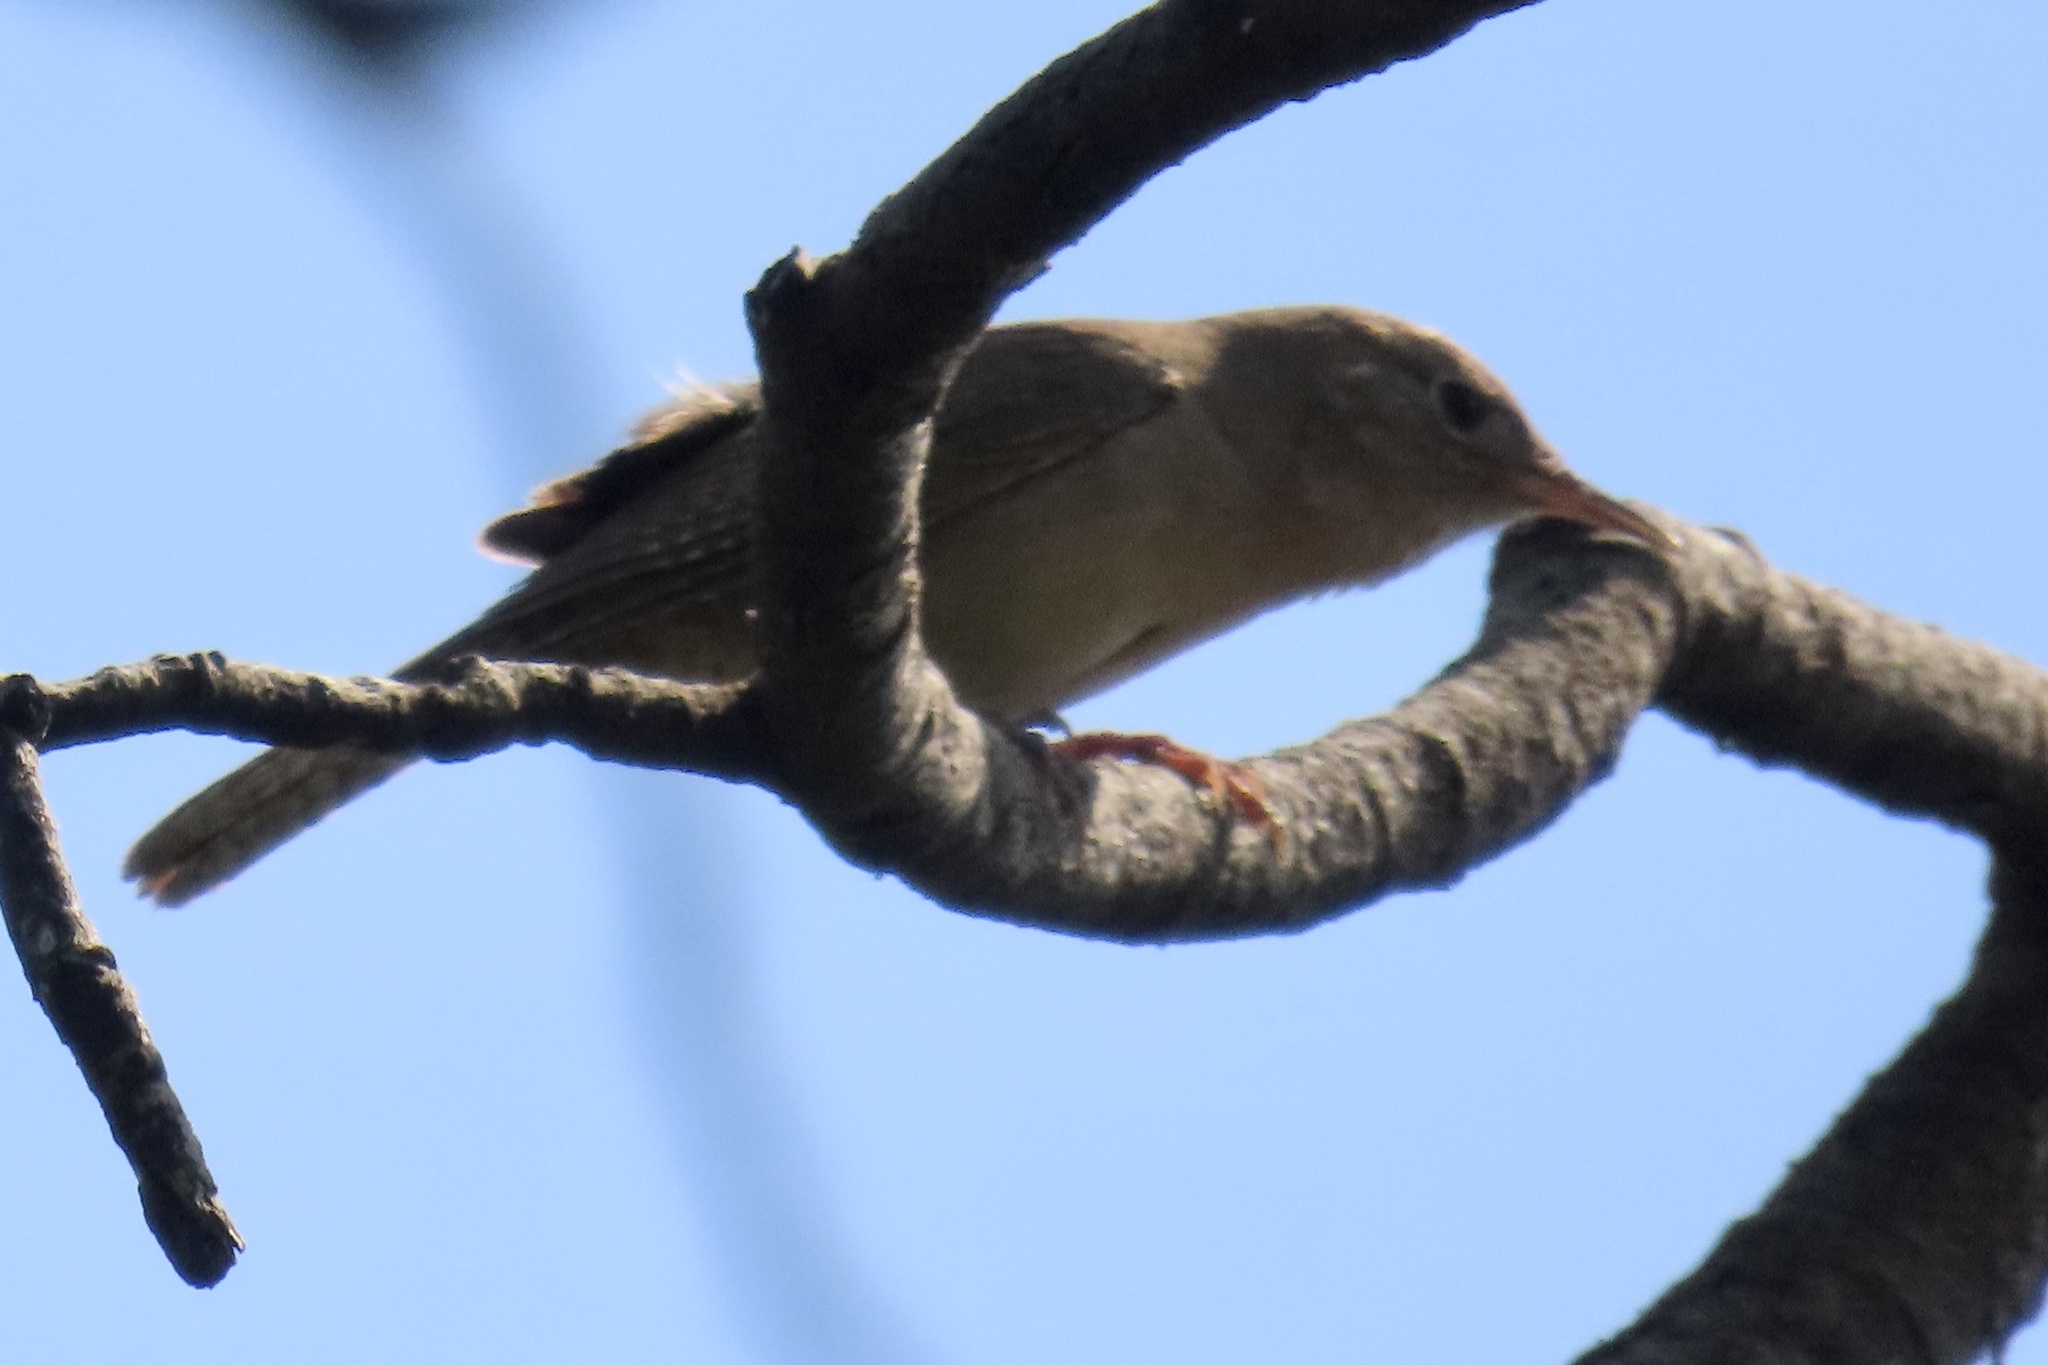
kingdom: Animalia
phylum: Chordata
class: Aves
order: Passeriformes
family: Troglodytidae
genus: Troglodytes
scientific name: Troglodytes aedon
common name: House wren
